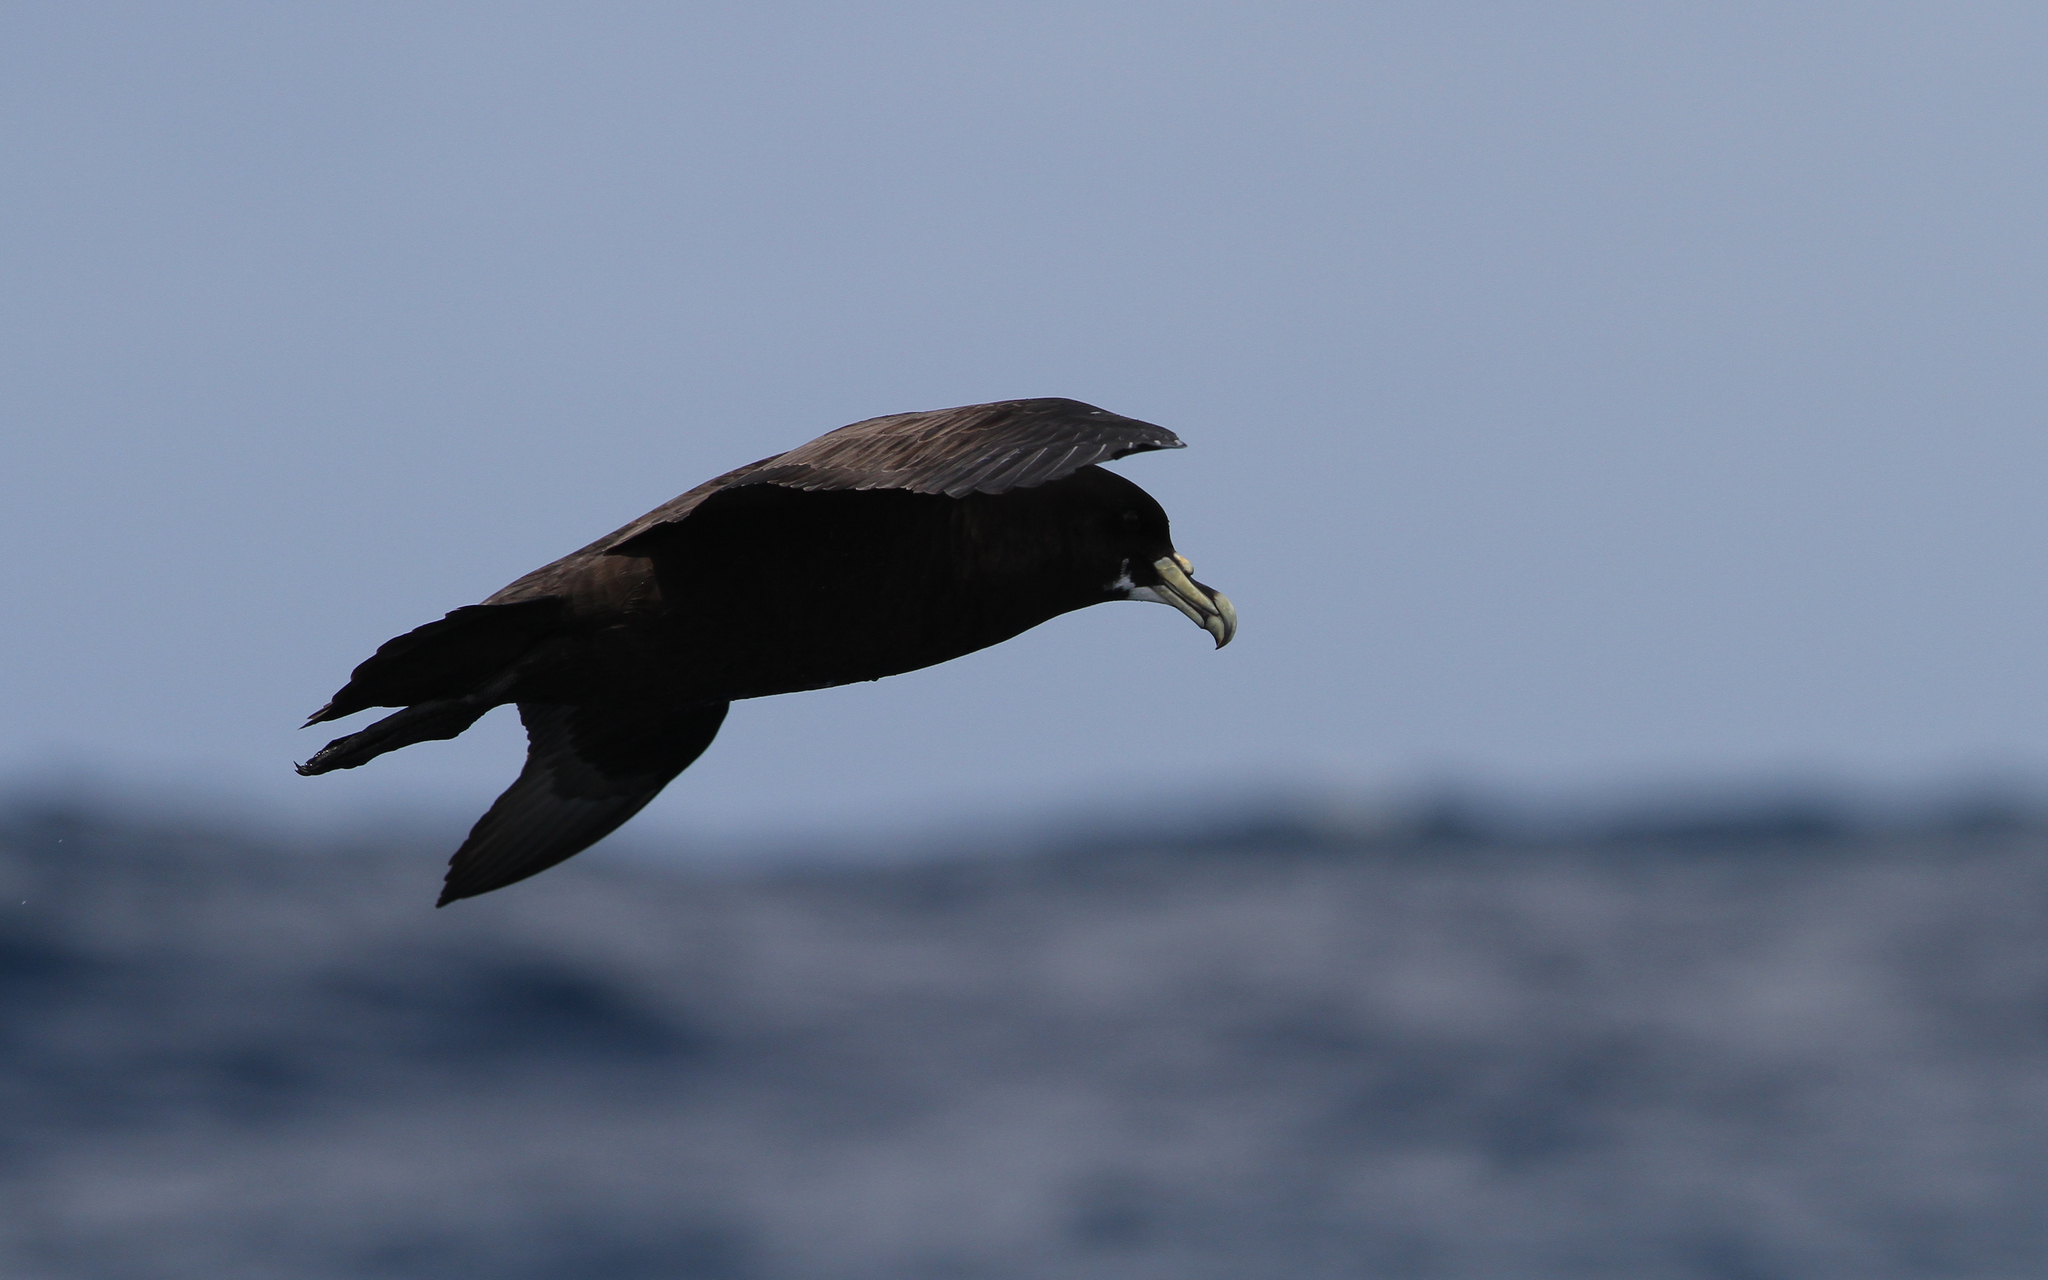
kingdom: Animalia
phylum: Chordata
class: Aves
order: Procellariiformes
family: Procellariidae
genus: Procellaria
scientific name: Procellaria aequinoctialis
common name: White-chinned petrel
